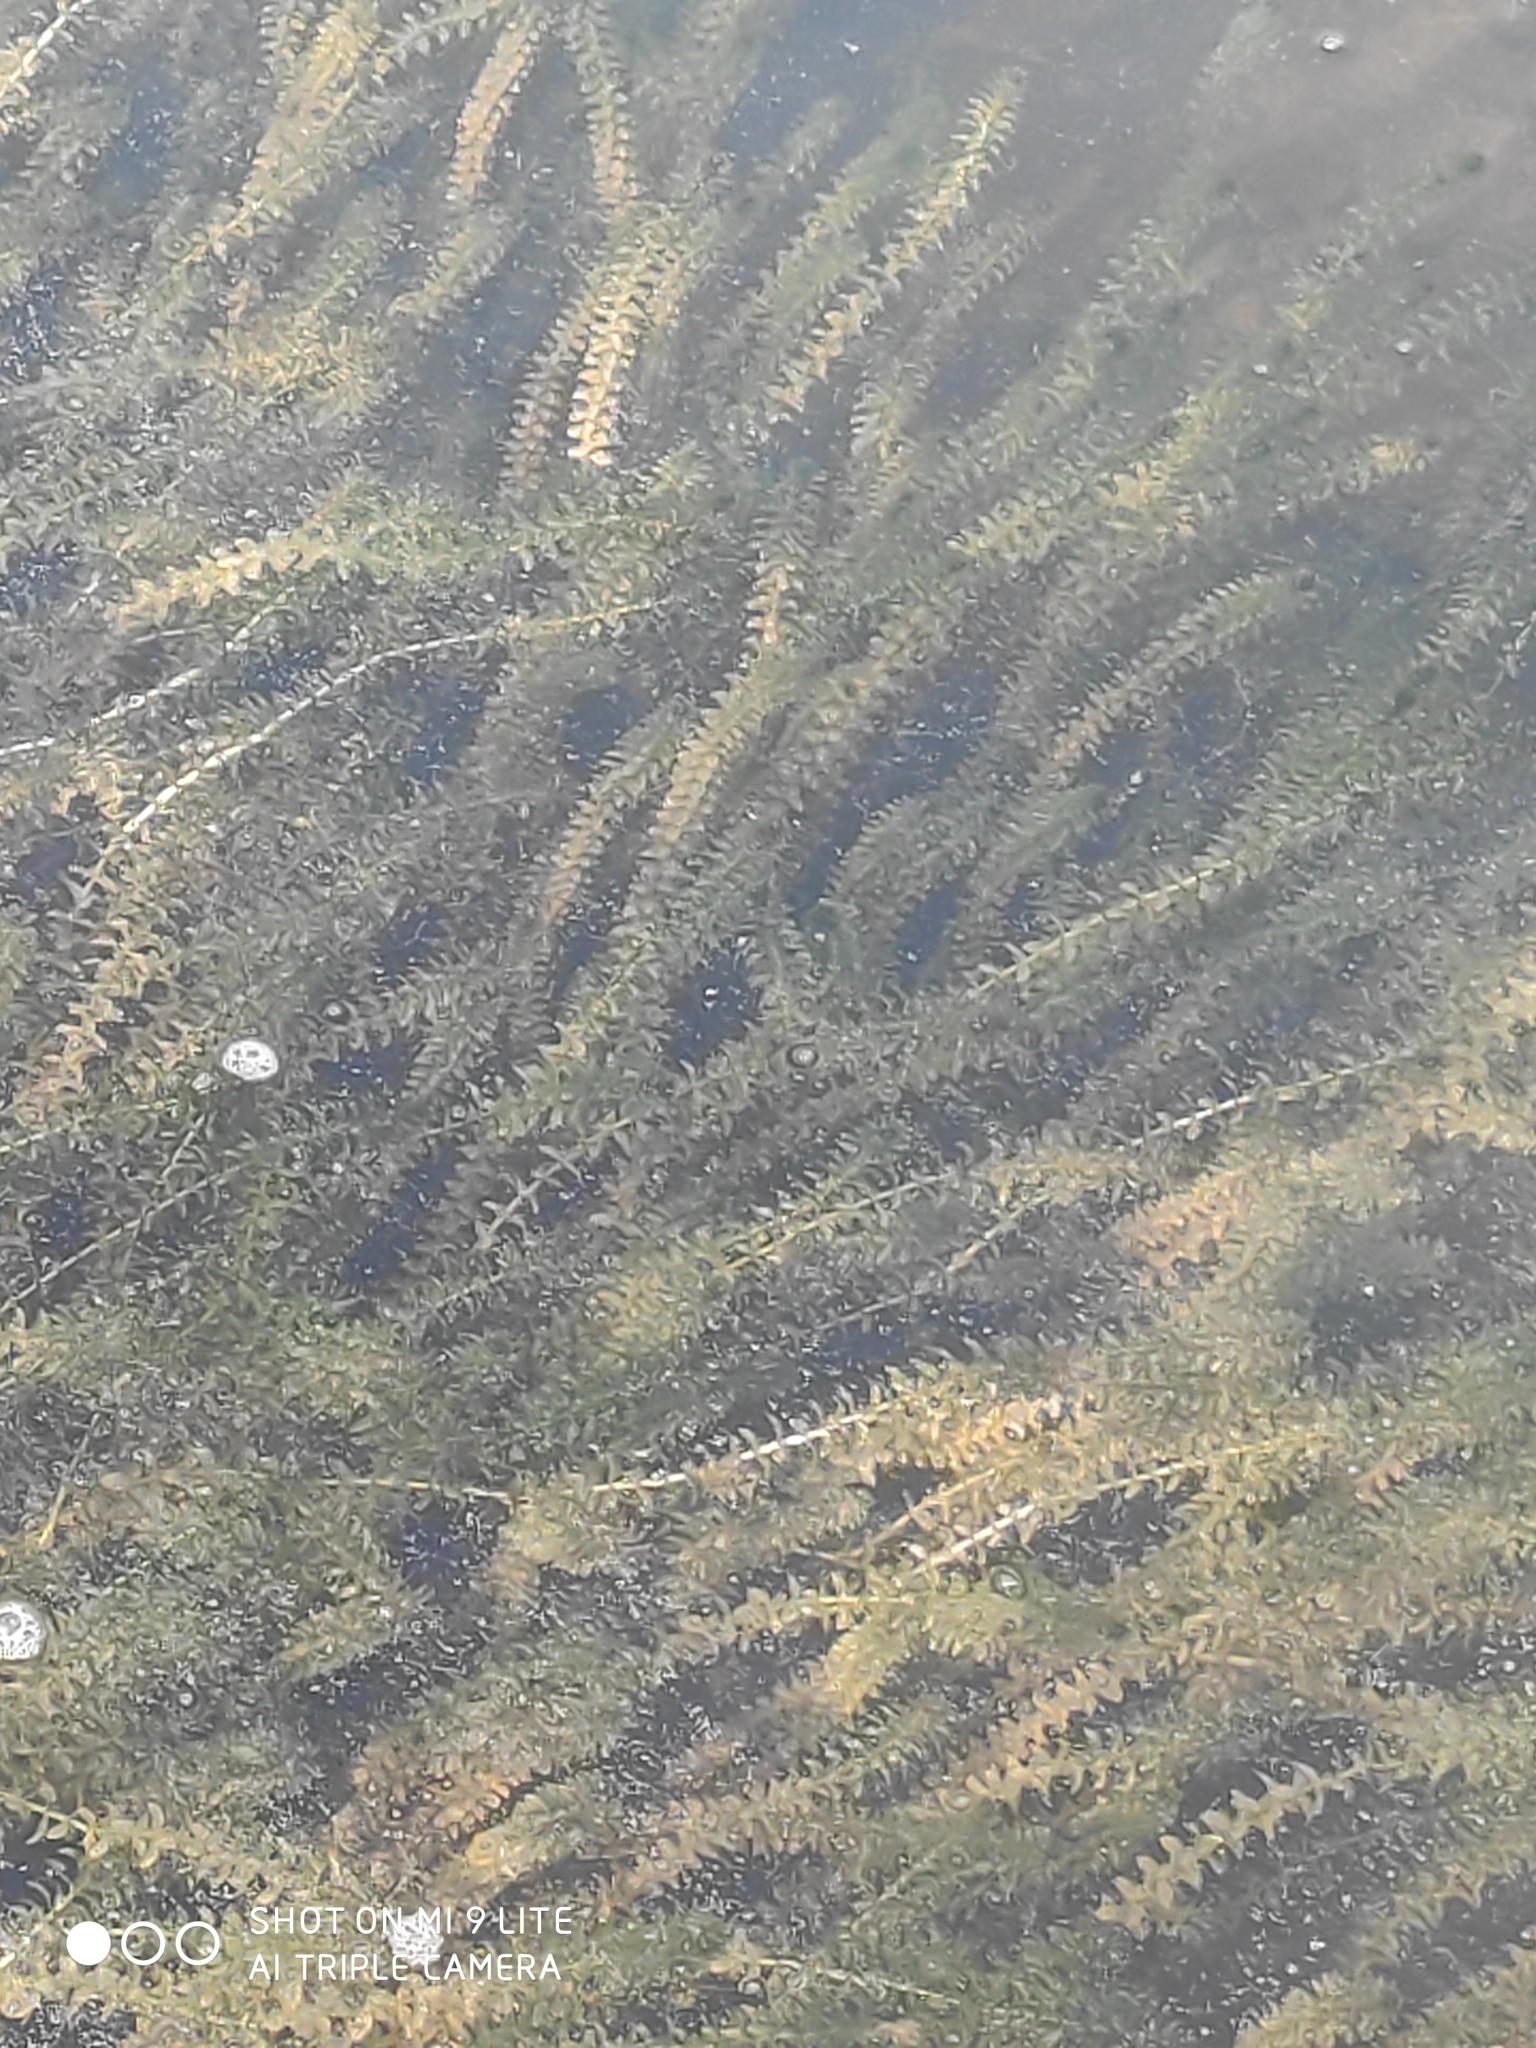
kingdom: Plantae
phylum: Tracheophyta
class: Liliopsida
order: Alismatales
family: Hydrocharitaceae
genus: Elodea
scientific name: Elodea canadensis
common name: Canadian waterweed
